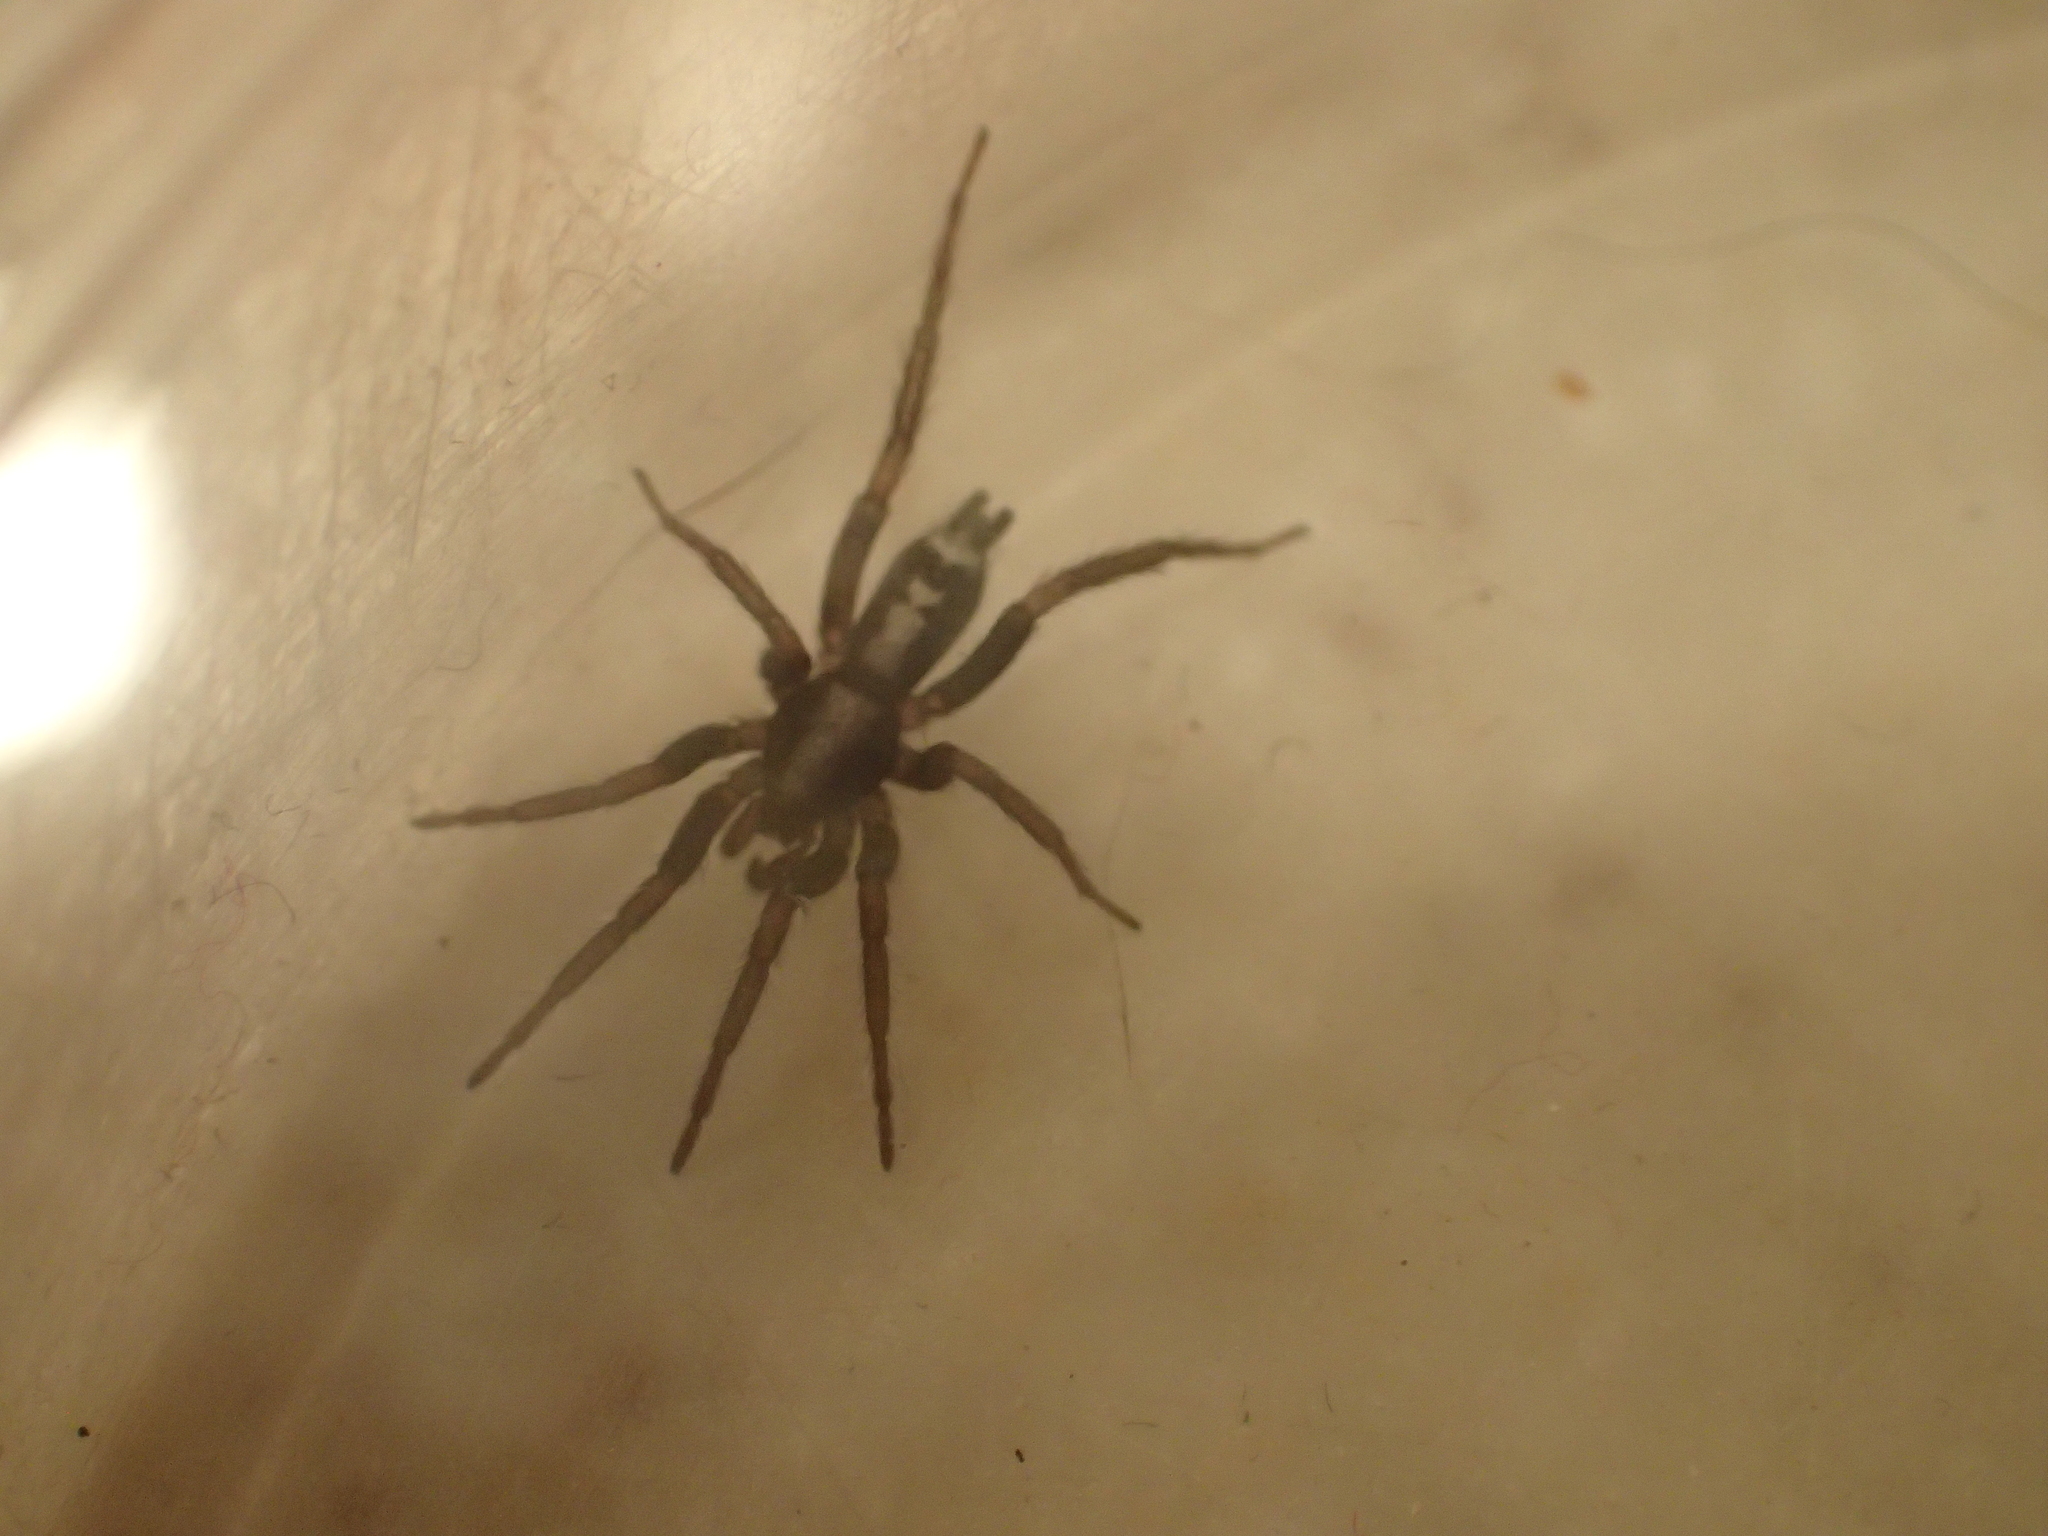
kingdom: Animalia
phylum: Arthropoda
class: Arachnida
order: Araneae
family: Gnaphosidae
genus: Herpyllus
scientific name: Herpyllus ecclesiasticus
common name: Eastern parson spider
